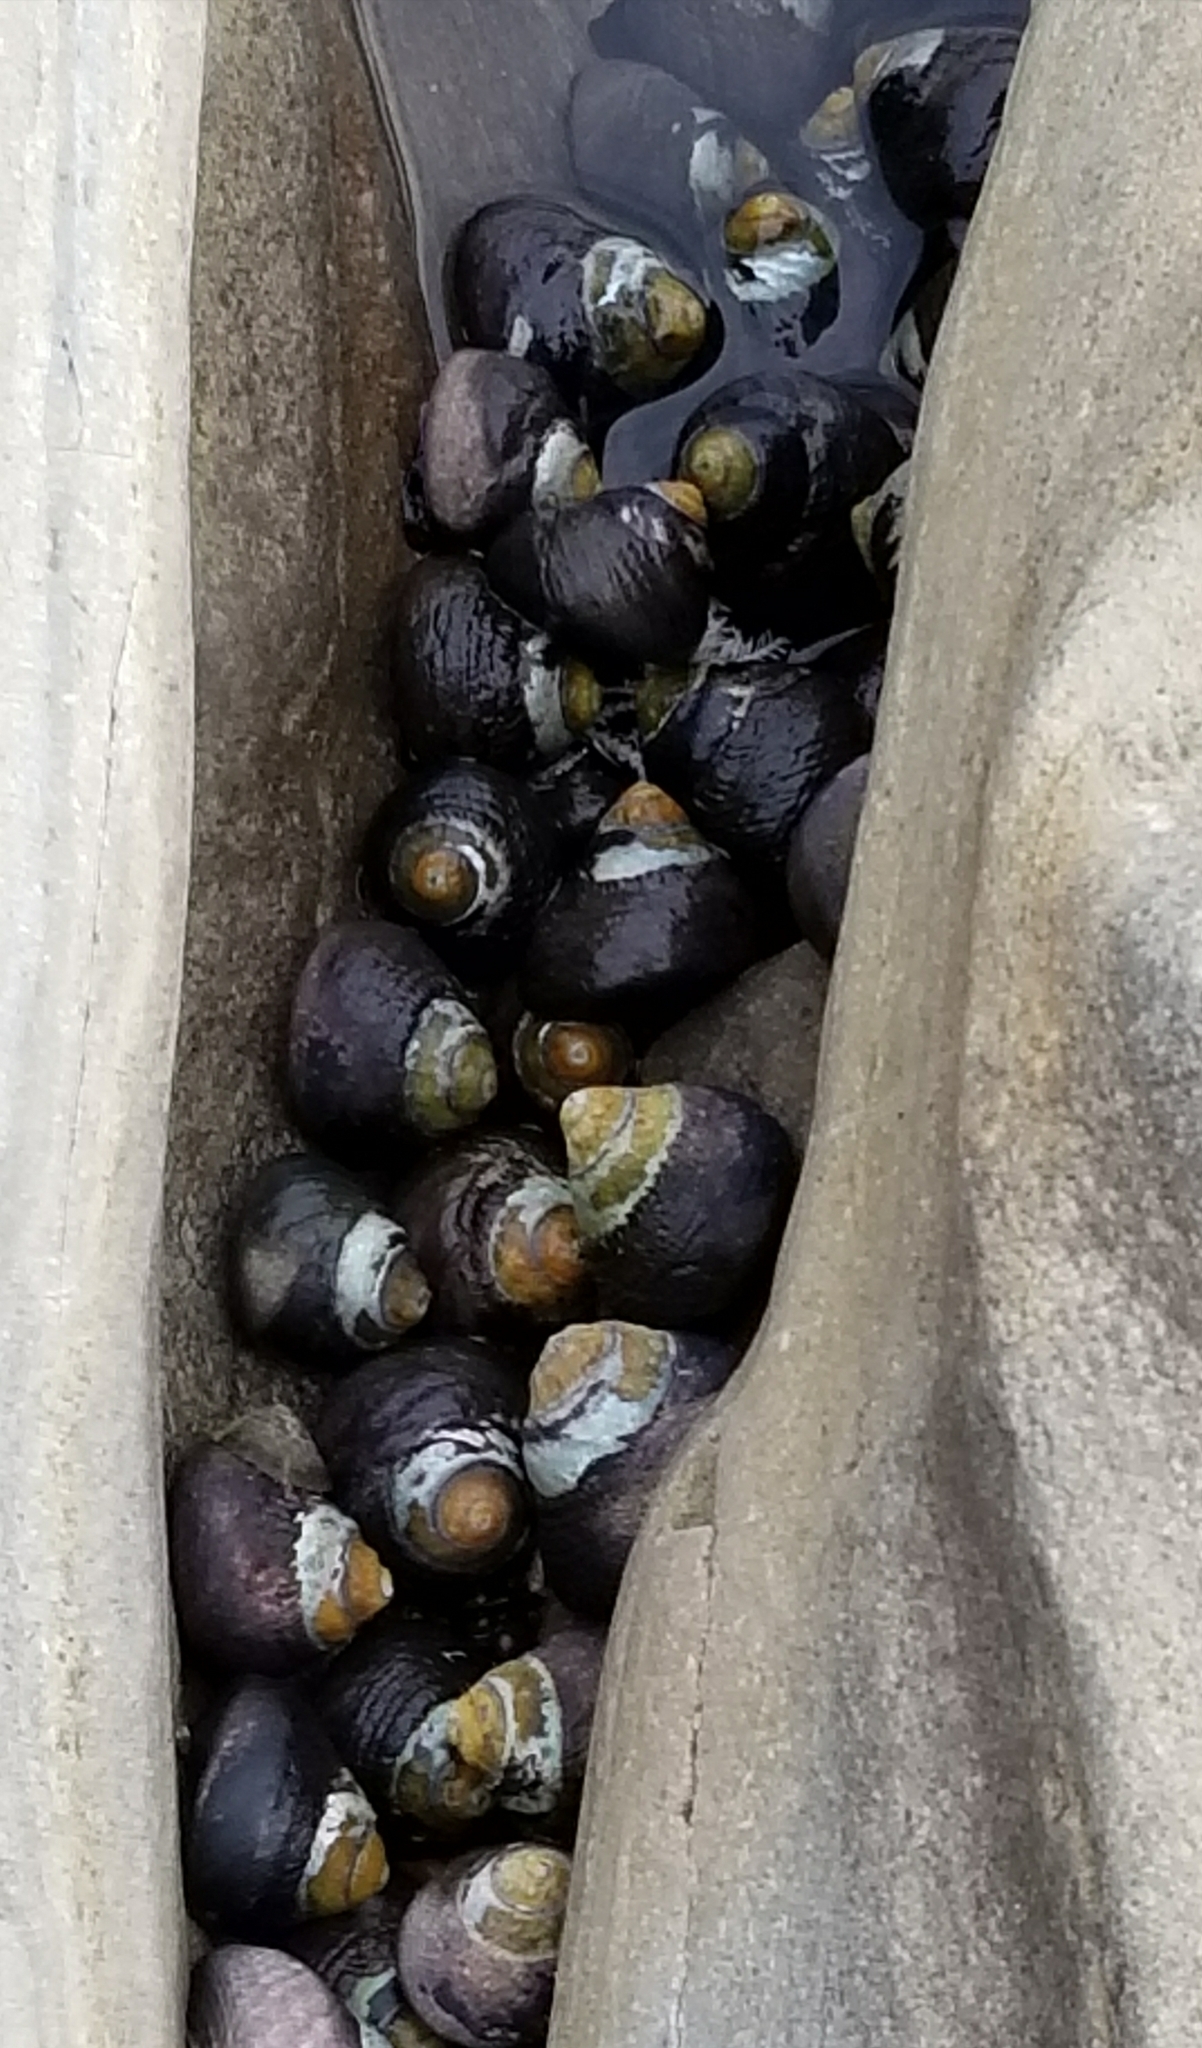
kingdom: Animalia
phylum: Mollusca
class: Gastropoda
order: Trochida
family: Tegulidae
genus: Tegula
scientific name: Tegula funebralis
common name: Black tegula
